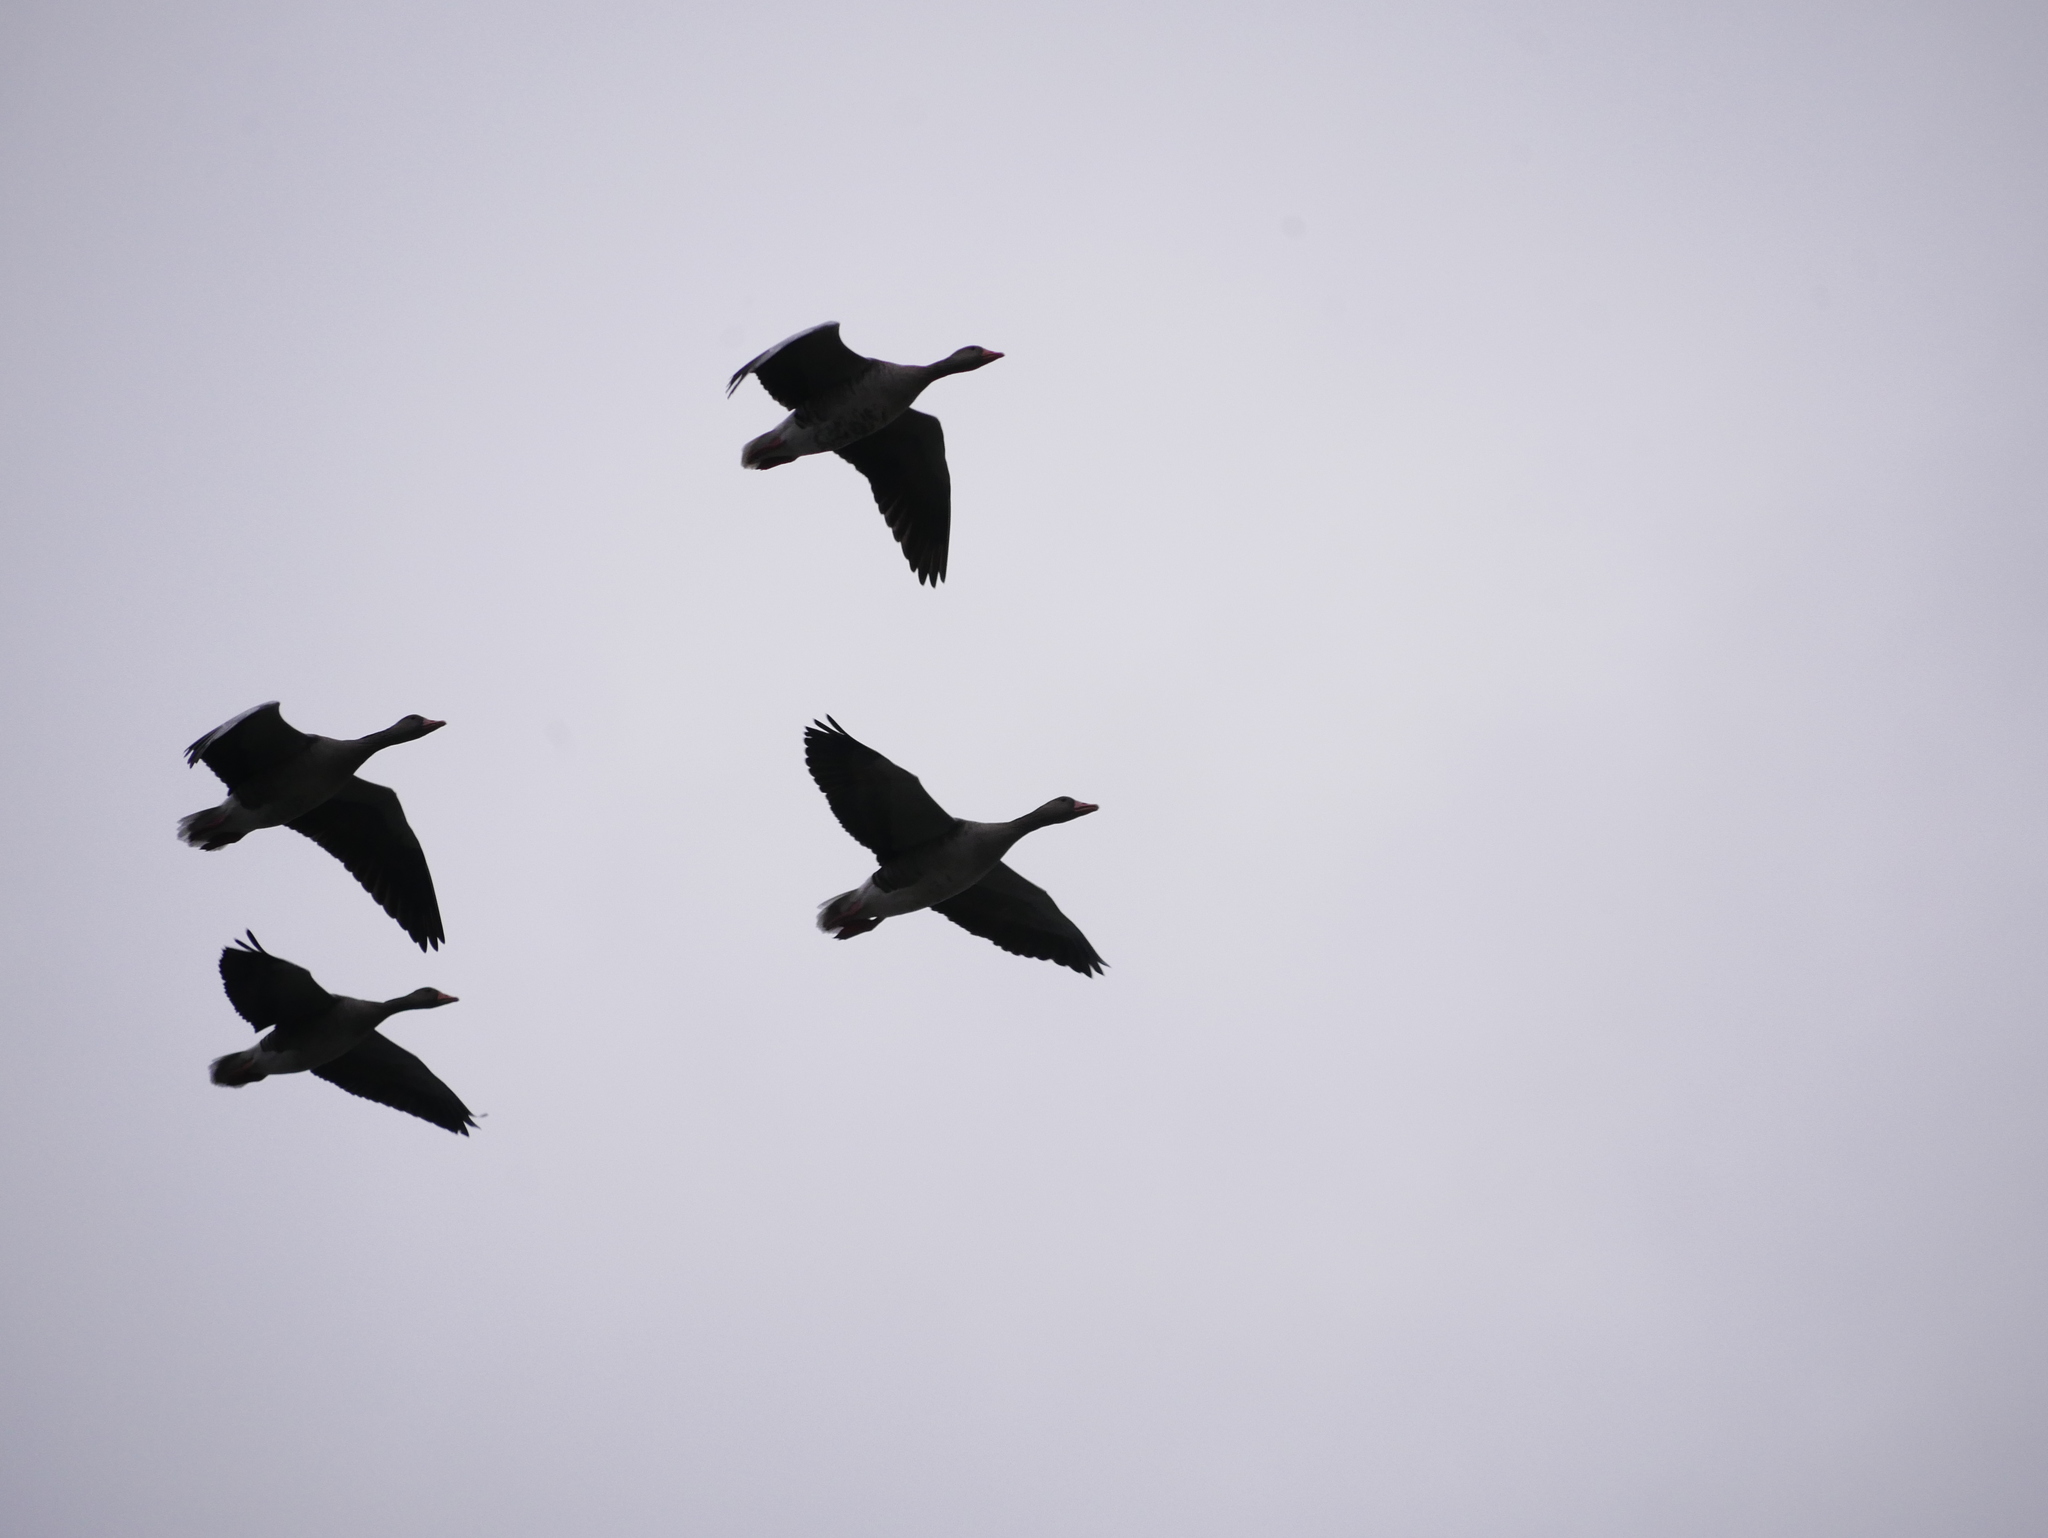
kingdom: Animalia
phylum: Chordata
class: Aves
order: Anseriformes
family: Anatidae
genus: Anser
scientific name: Anser anser
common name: Greylag goose
